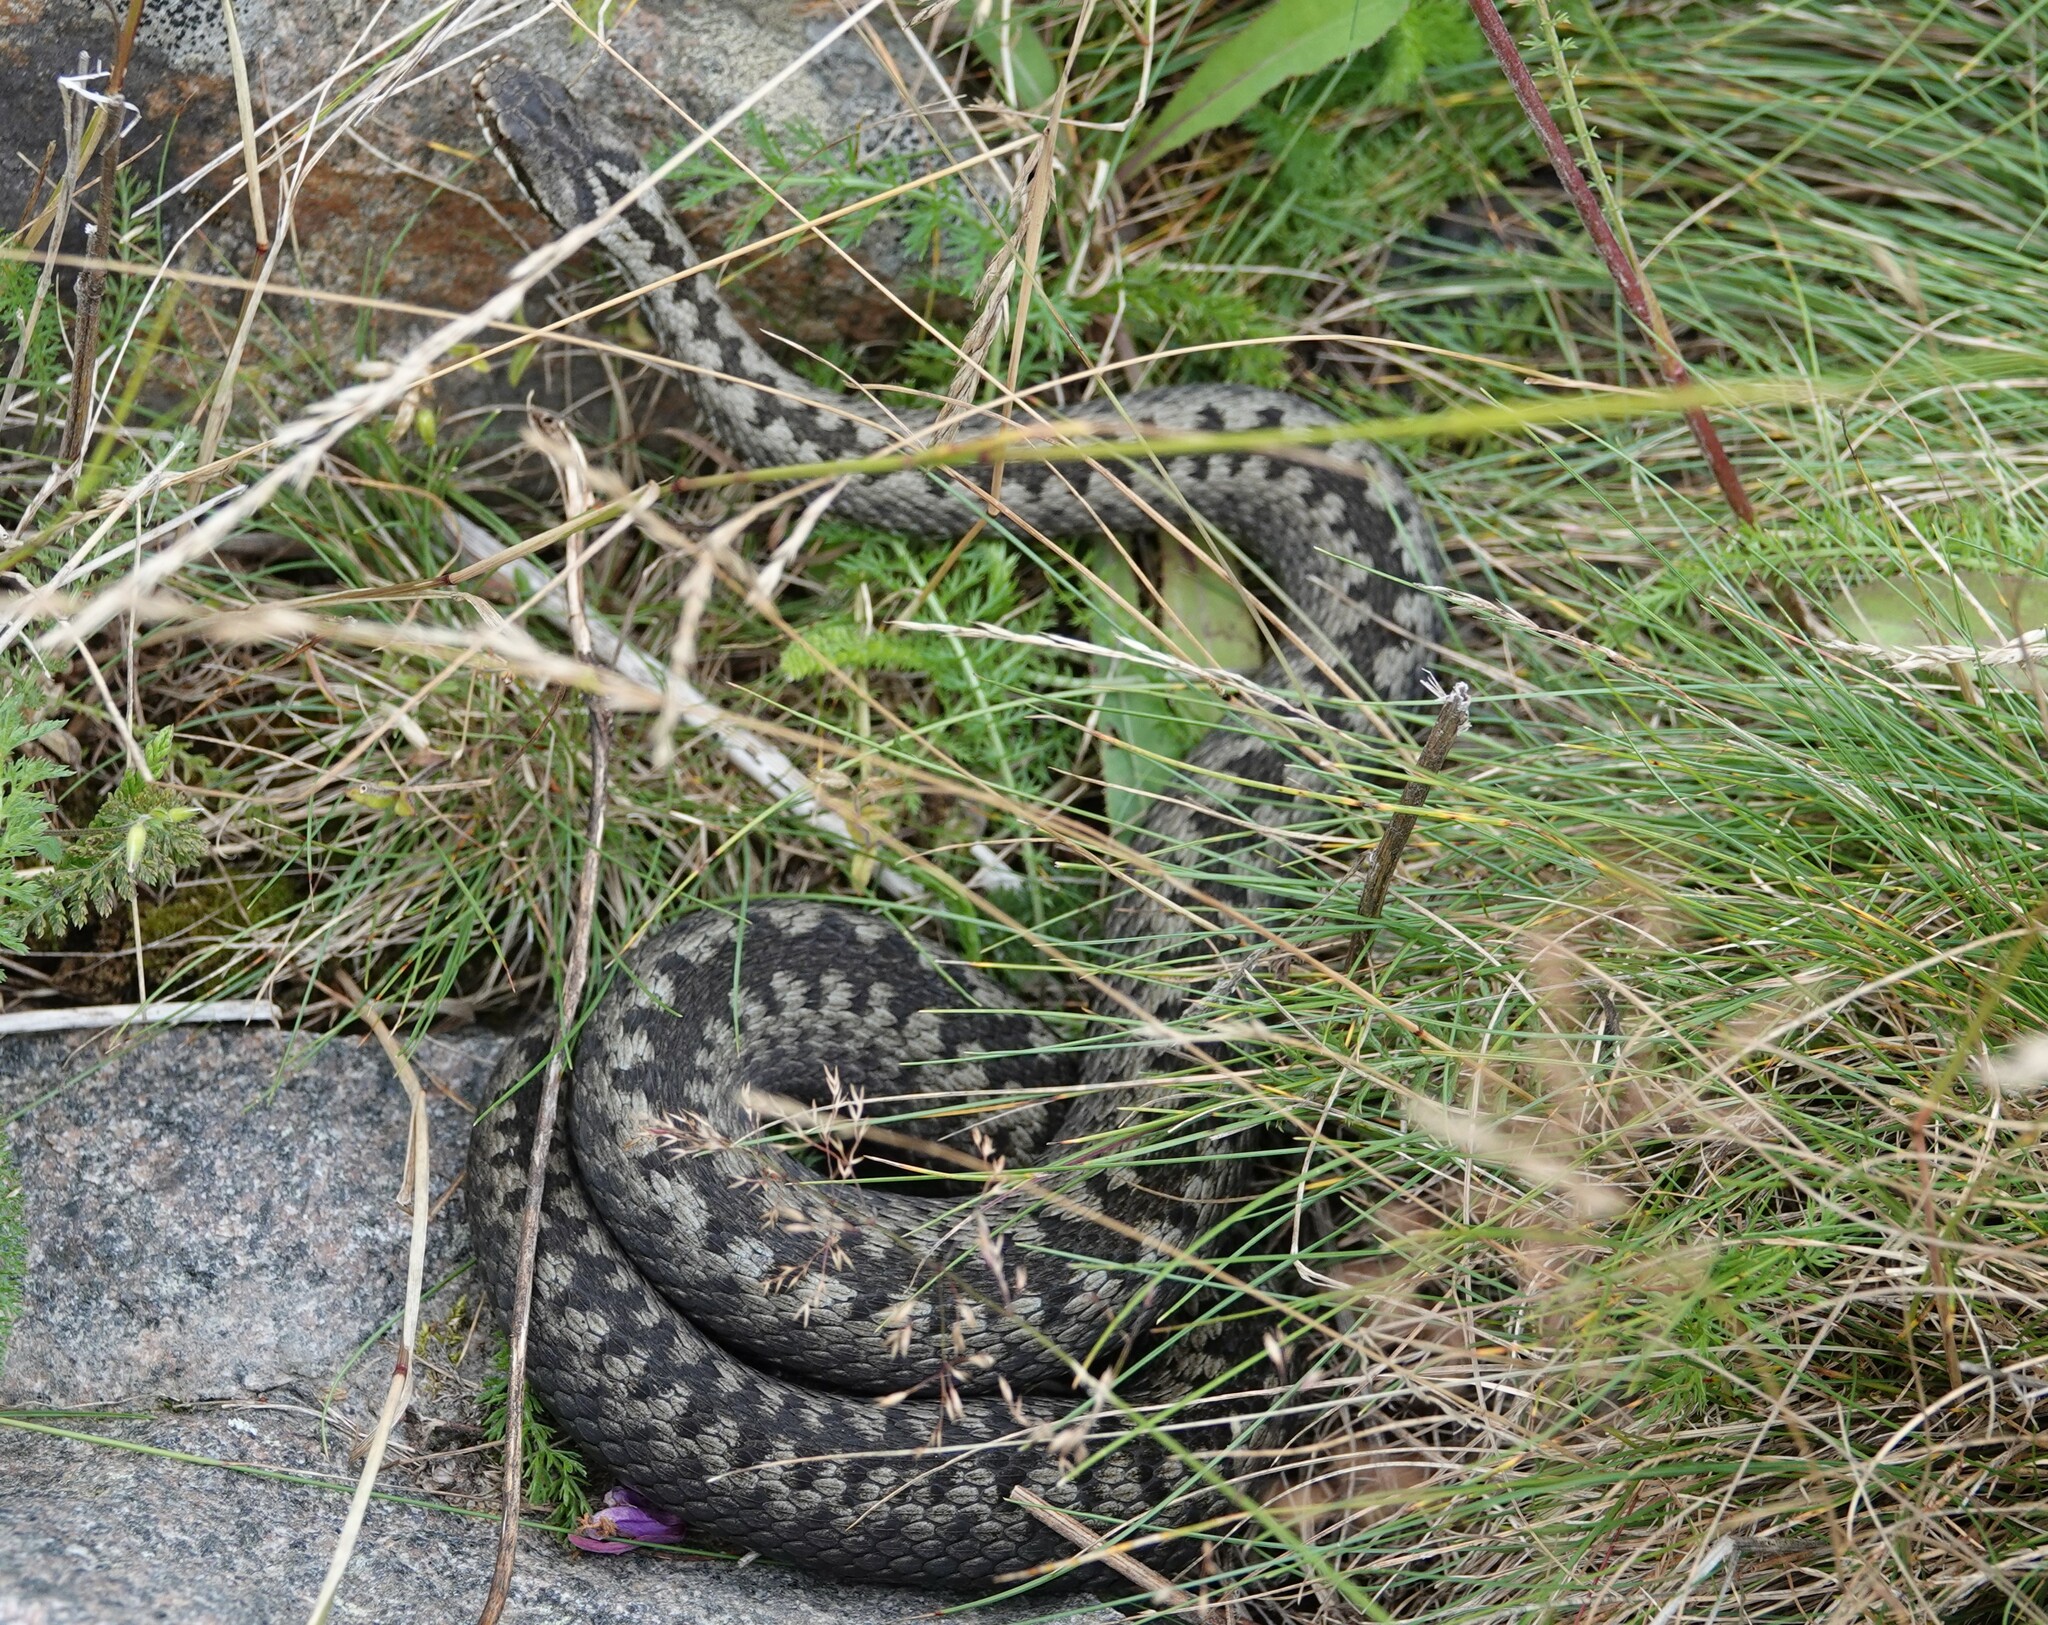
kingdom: Animalia
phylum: Chordata
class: Squamata
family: Viperidae
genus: Vipera
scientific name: Vipera berus
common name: Adder
